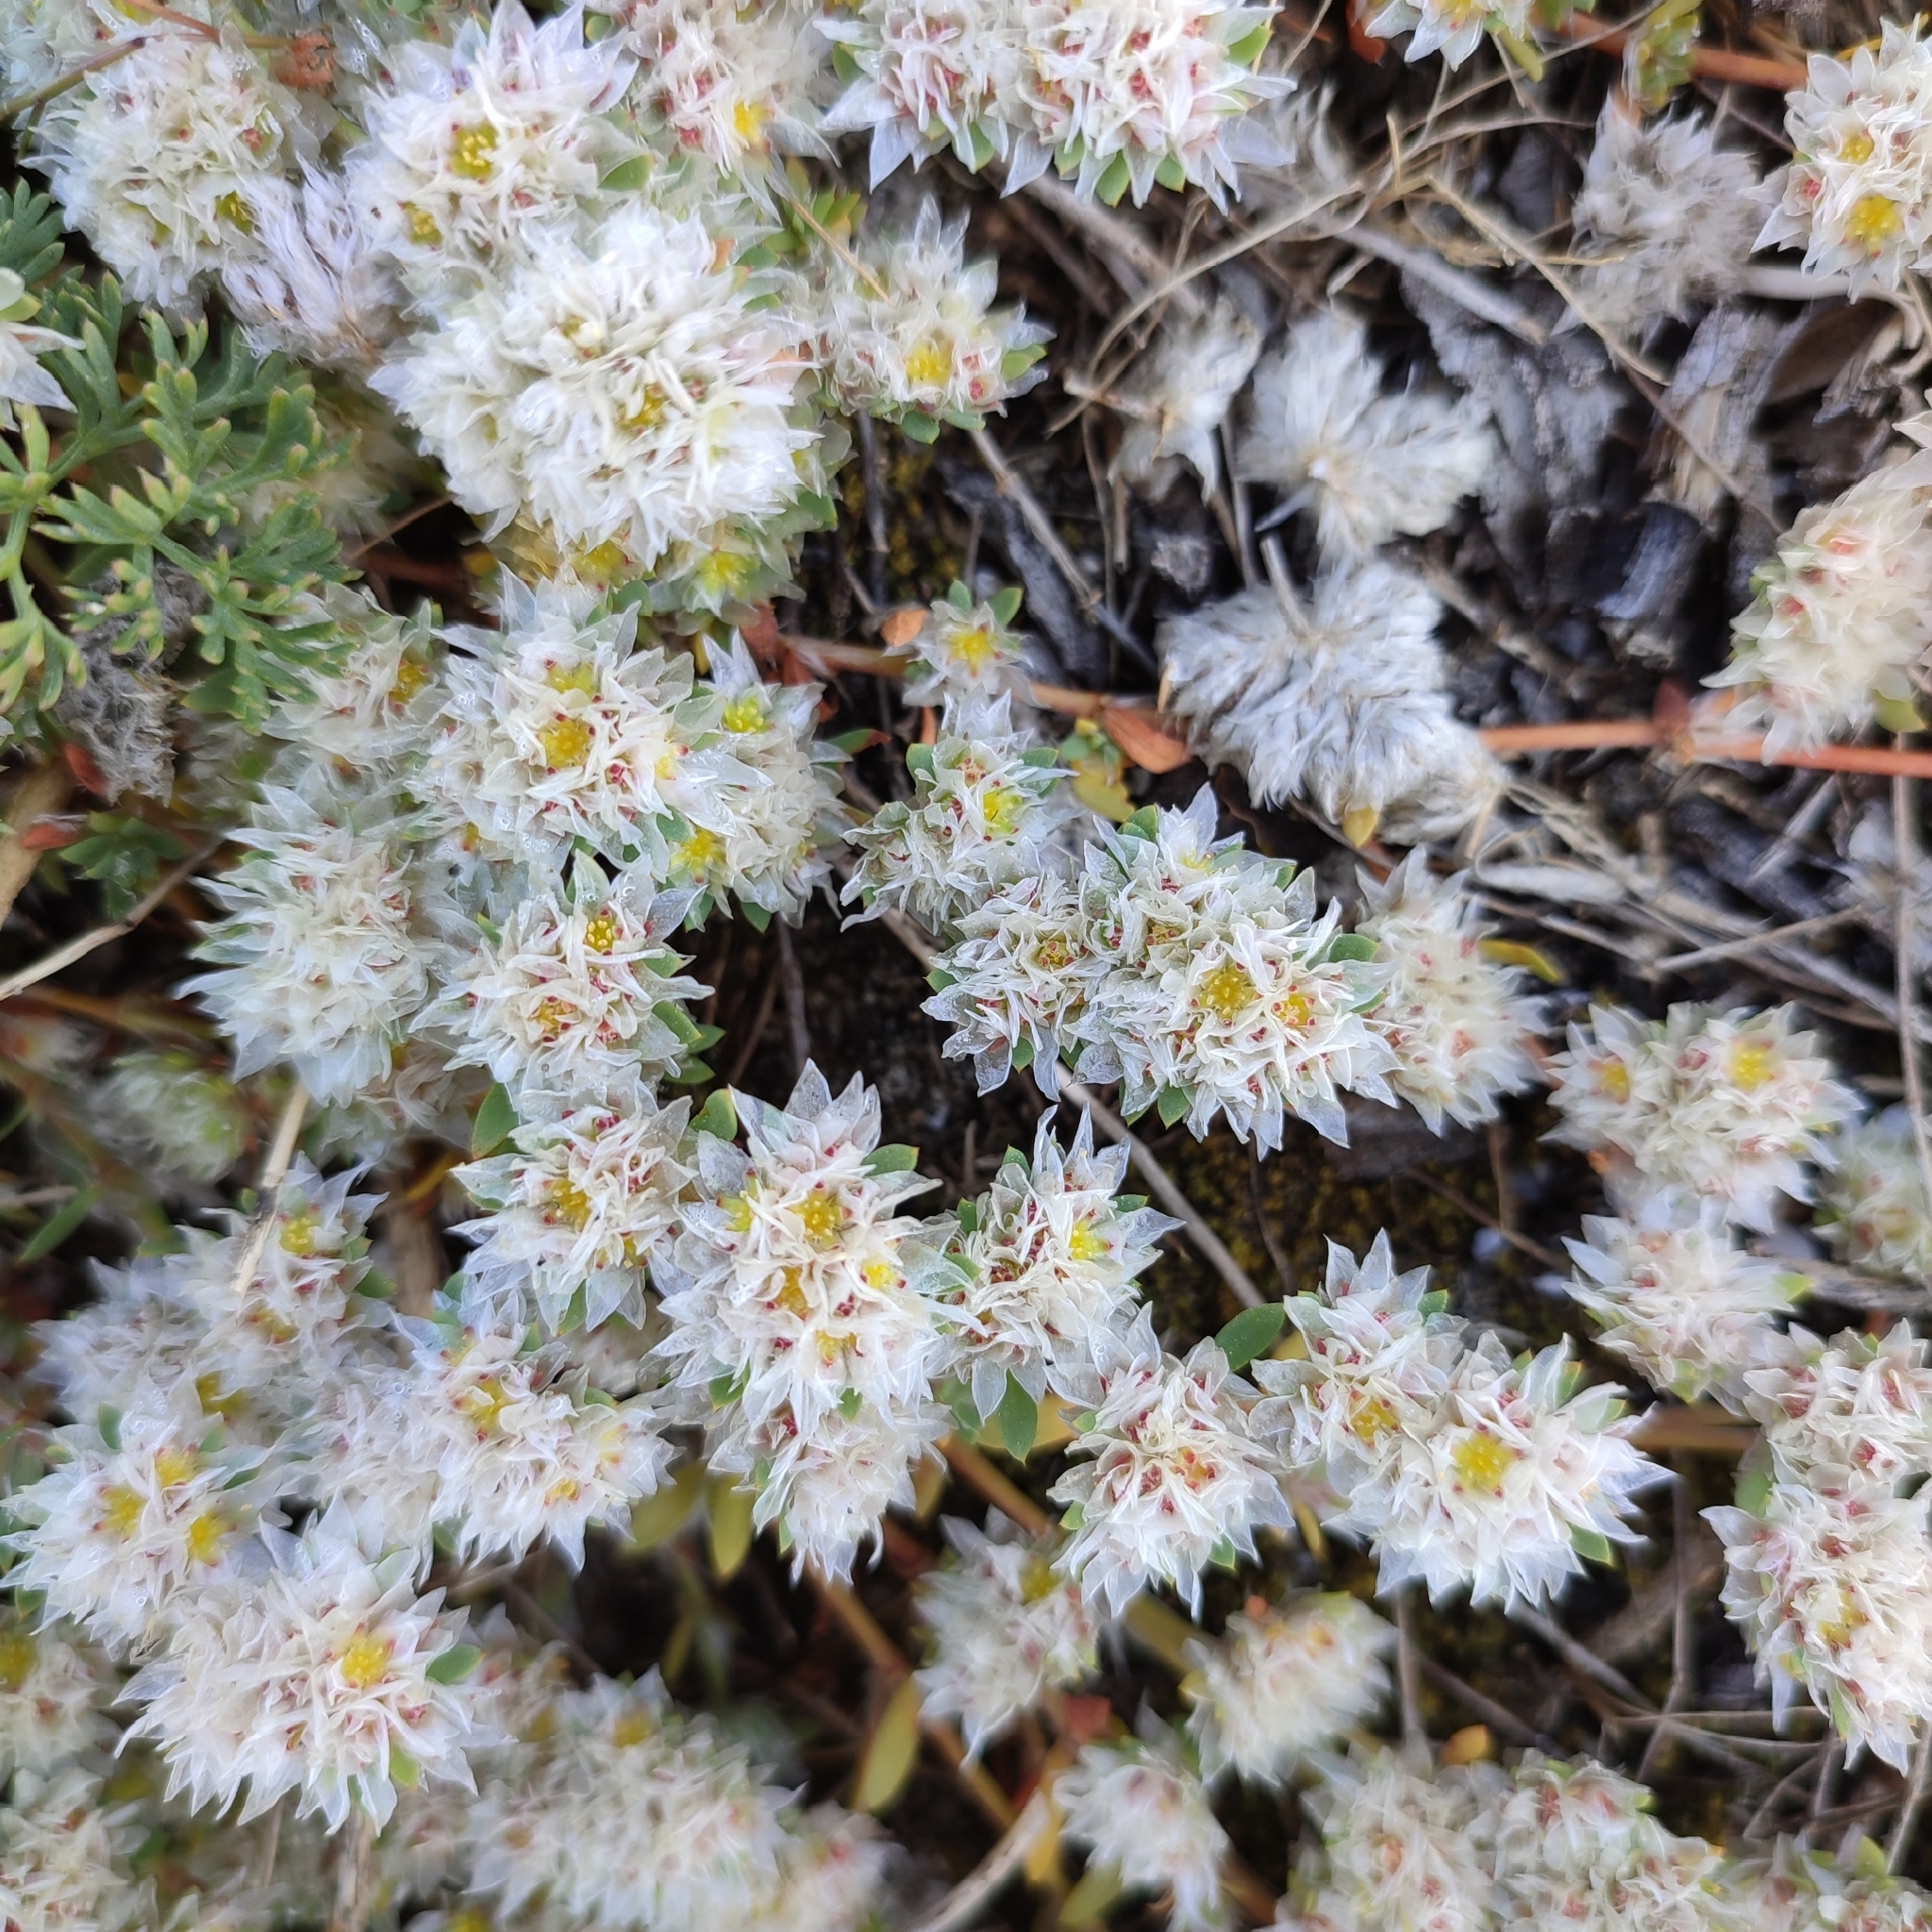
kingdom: Plantae
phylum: Tracheophyta
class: Magnoliopsida
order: Caryophyllales
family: Caryophyllaceae
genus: Paronychia
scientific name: Paronychia argentea
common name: Silver nailroot
